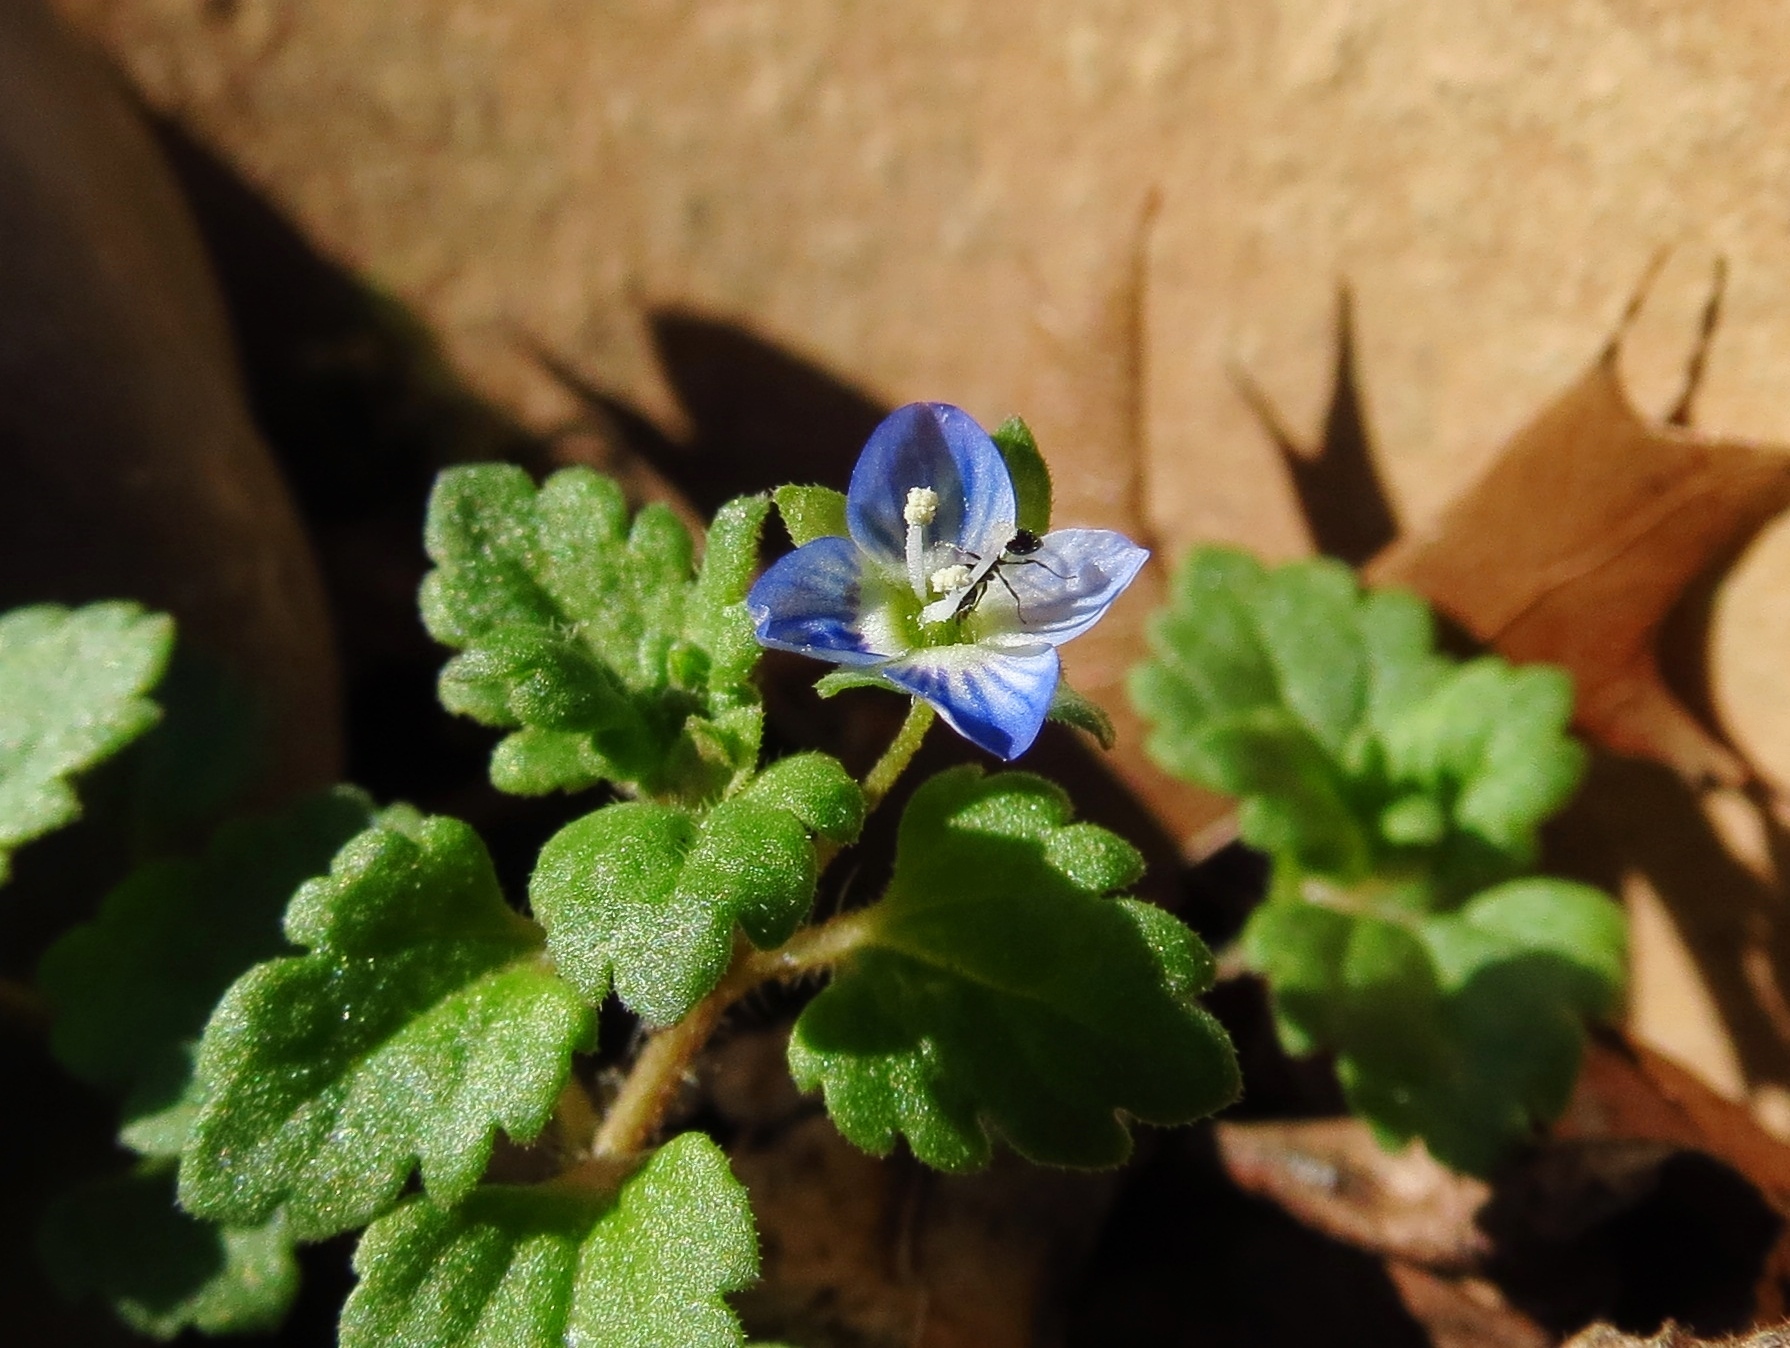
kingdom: Plantae
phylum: Tracheophyta
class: Magnoliopsida
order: Lamiales
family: Plantaginaceae
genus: Veronica
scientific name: Veronica polita
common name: Grey field-speedwell
